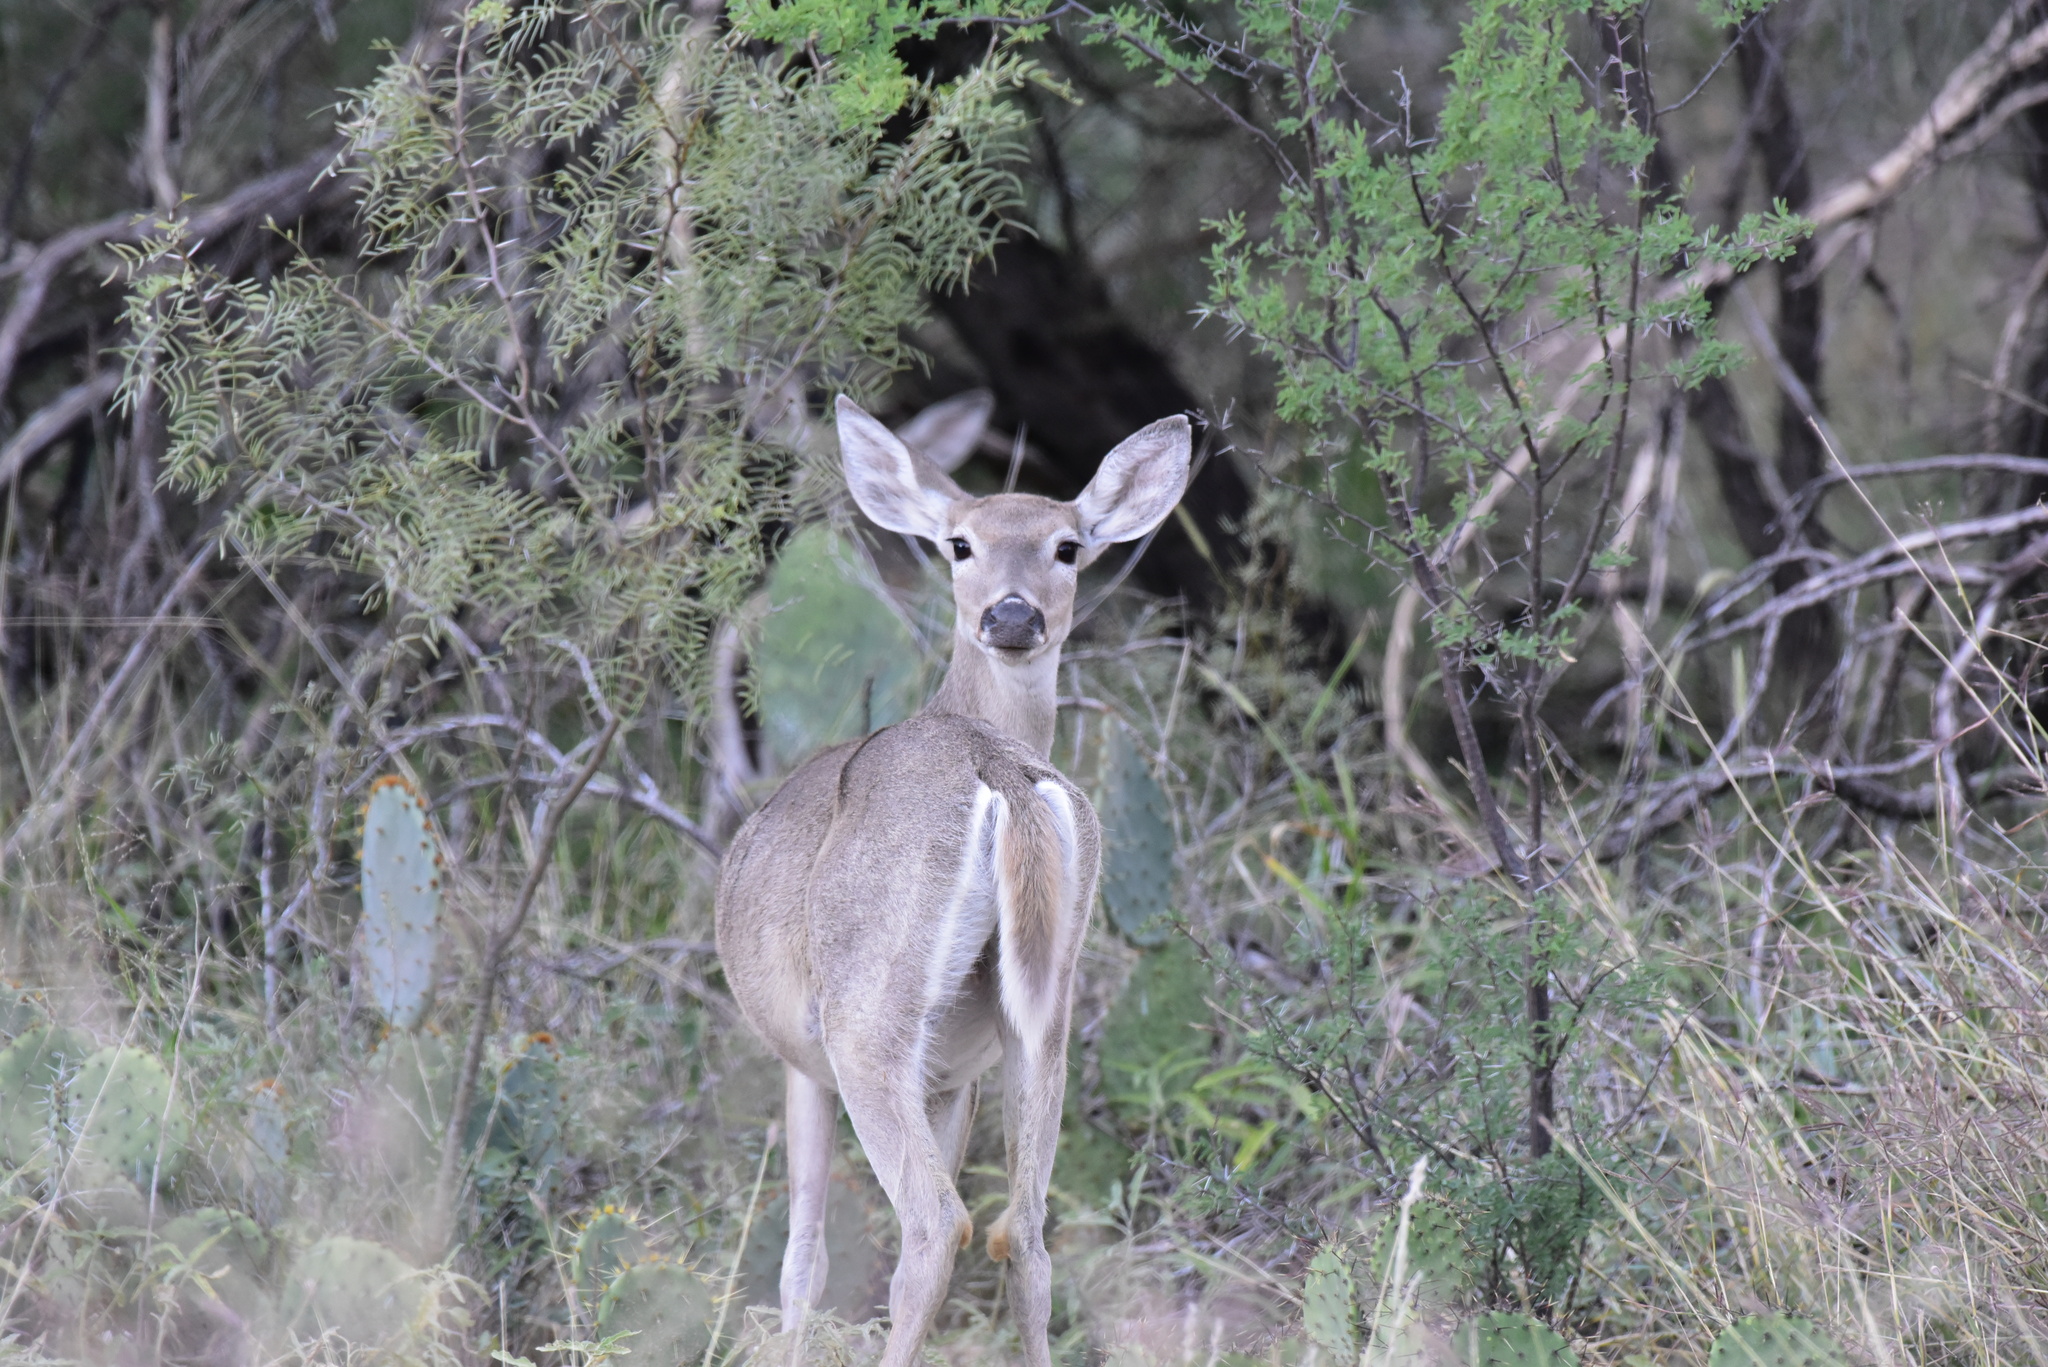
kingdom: Animalia
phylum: Chordata
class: Mammalia
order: Artiodactyla
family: Cervidae
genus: Odocoileus
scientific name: Odocoileus virginianus
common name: White-tailed deer
